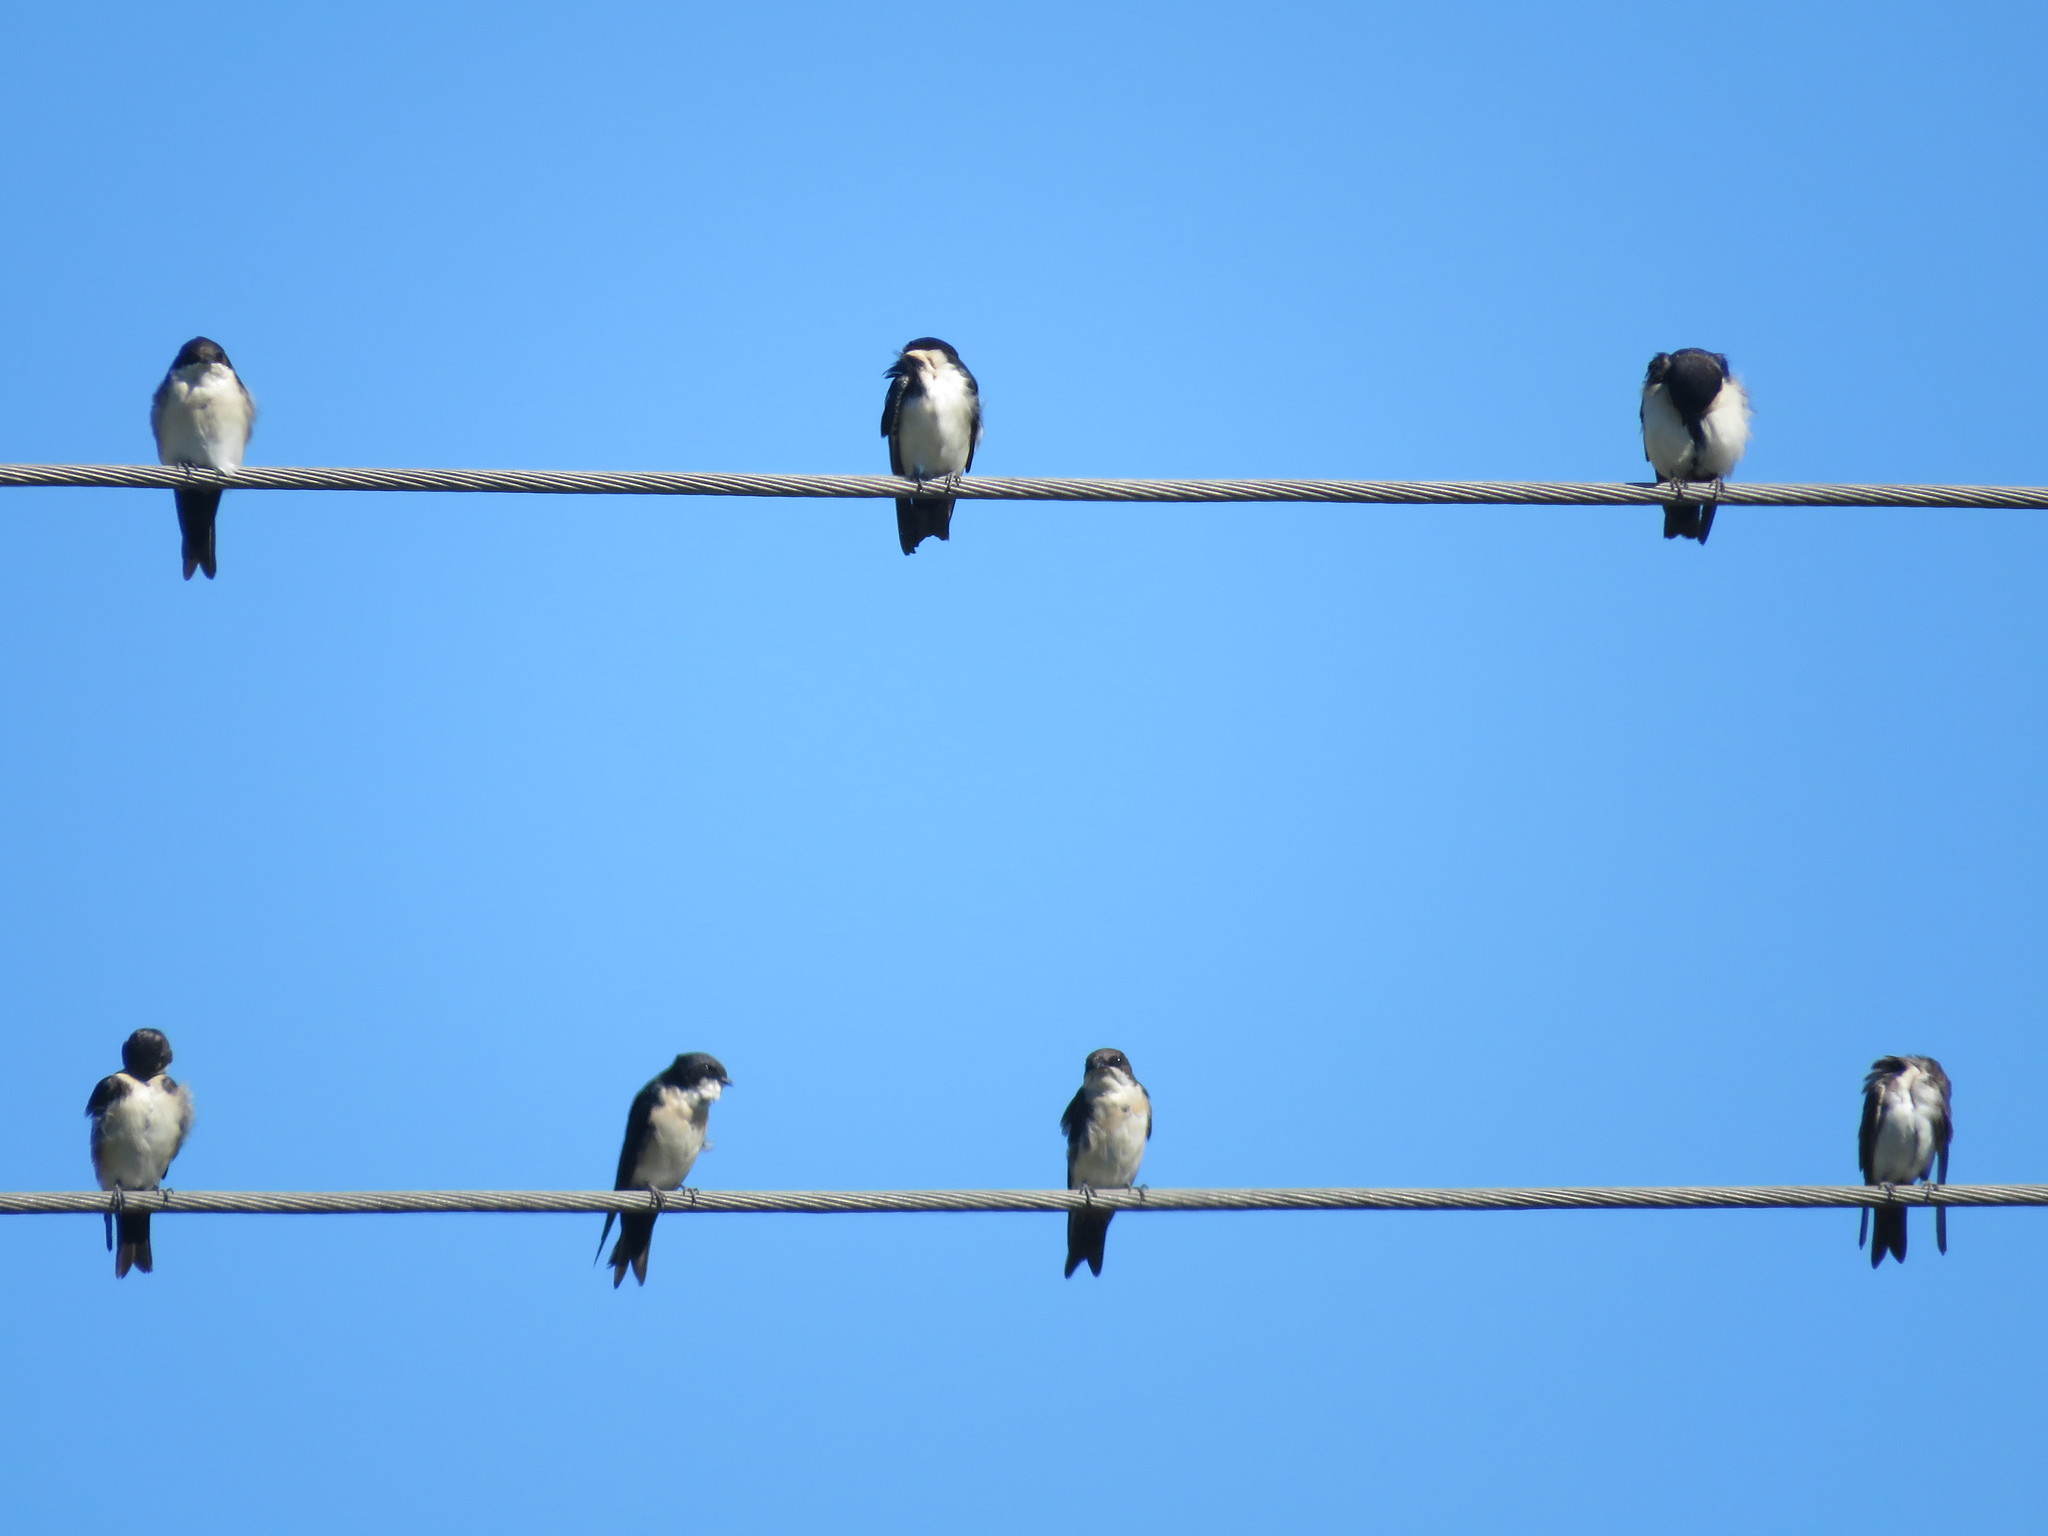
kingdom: Animalia
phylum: Chordata
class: Aves
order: Passeriformes
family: Hirundinidae
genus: Notiochelidon
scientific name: Notiochelidon cyanoleuca
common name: Blue-and-white swallow
